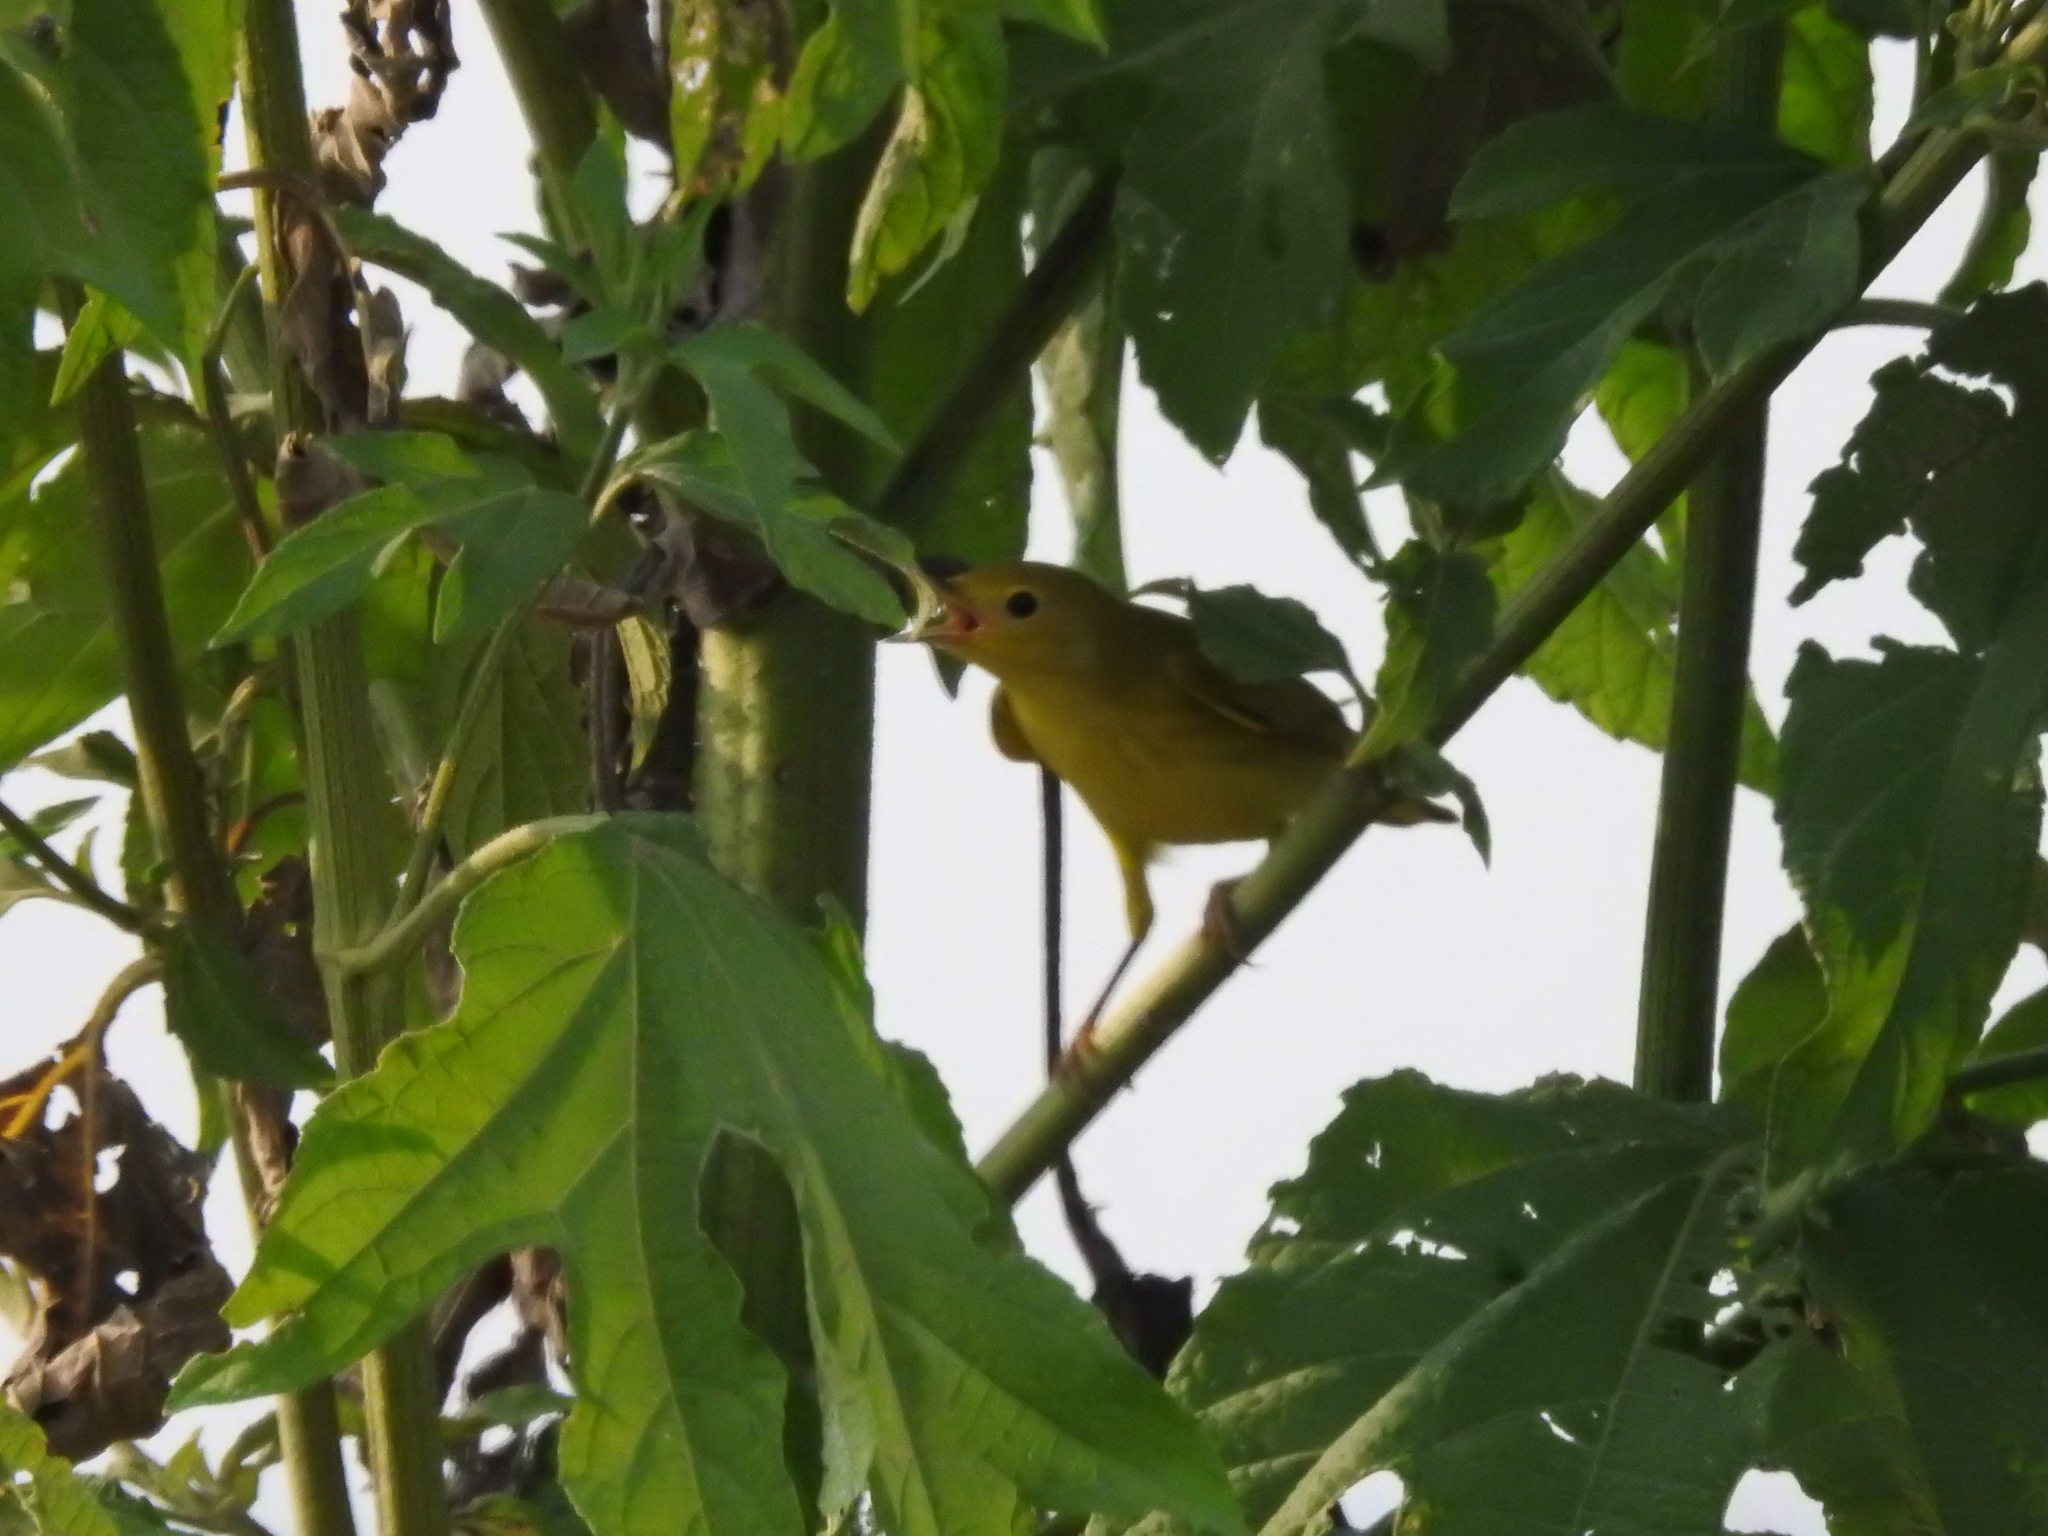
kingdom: Animalia
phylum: Chordata
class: Aves
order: Passeriformes
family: Parulidae
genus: Setophaga
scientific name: Setophaga petechia
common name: Yellow warbler
